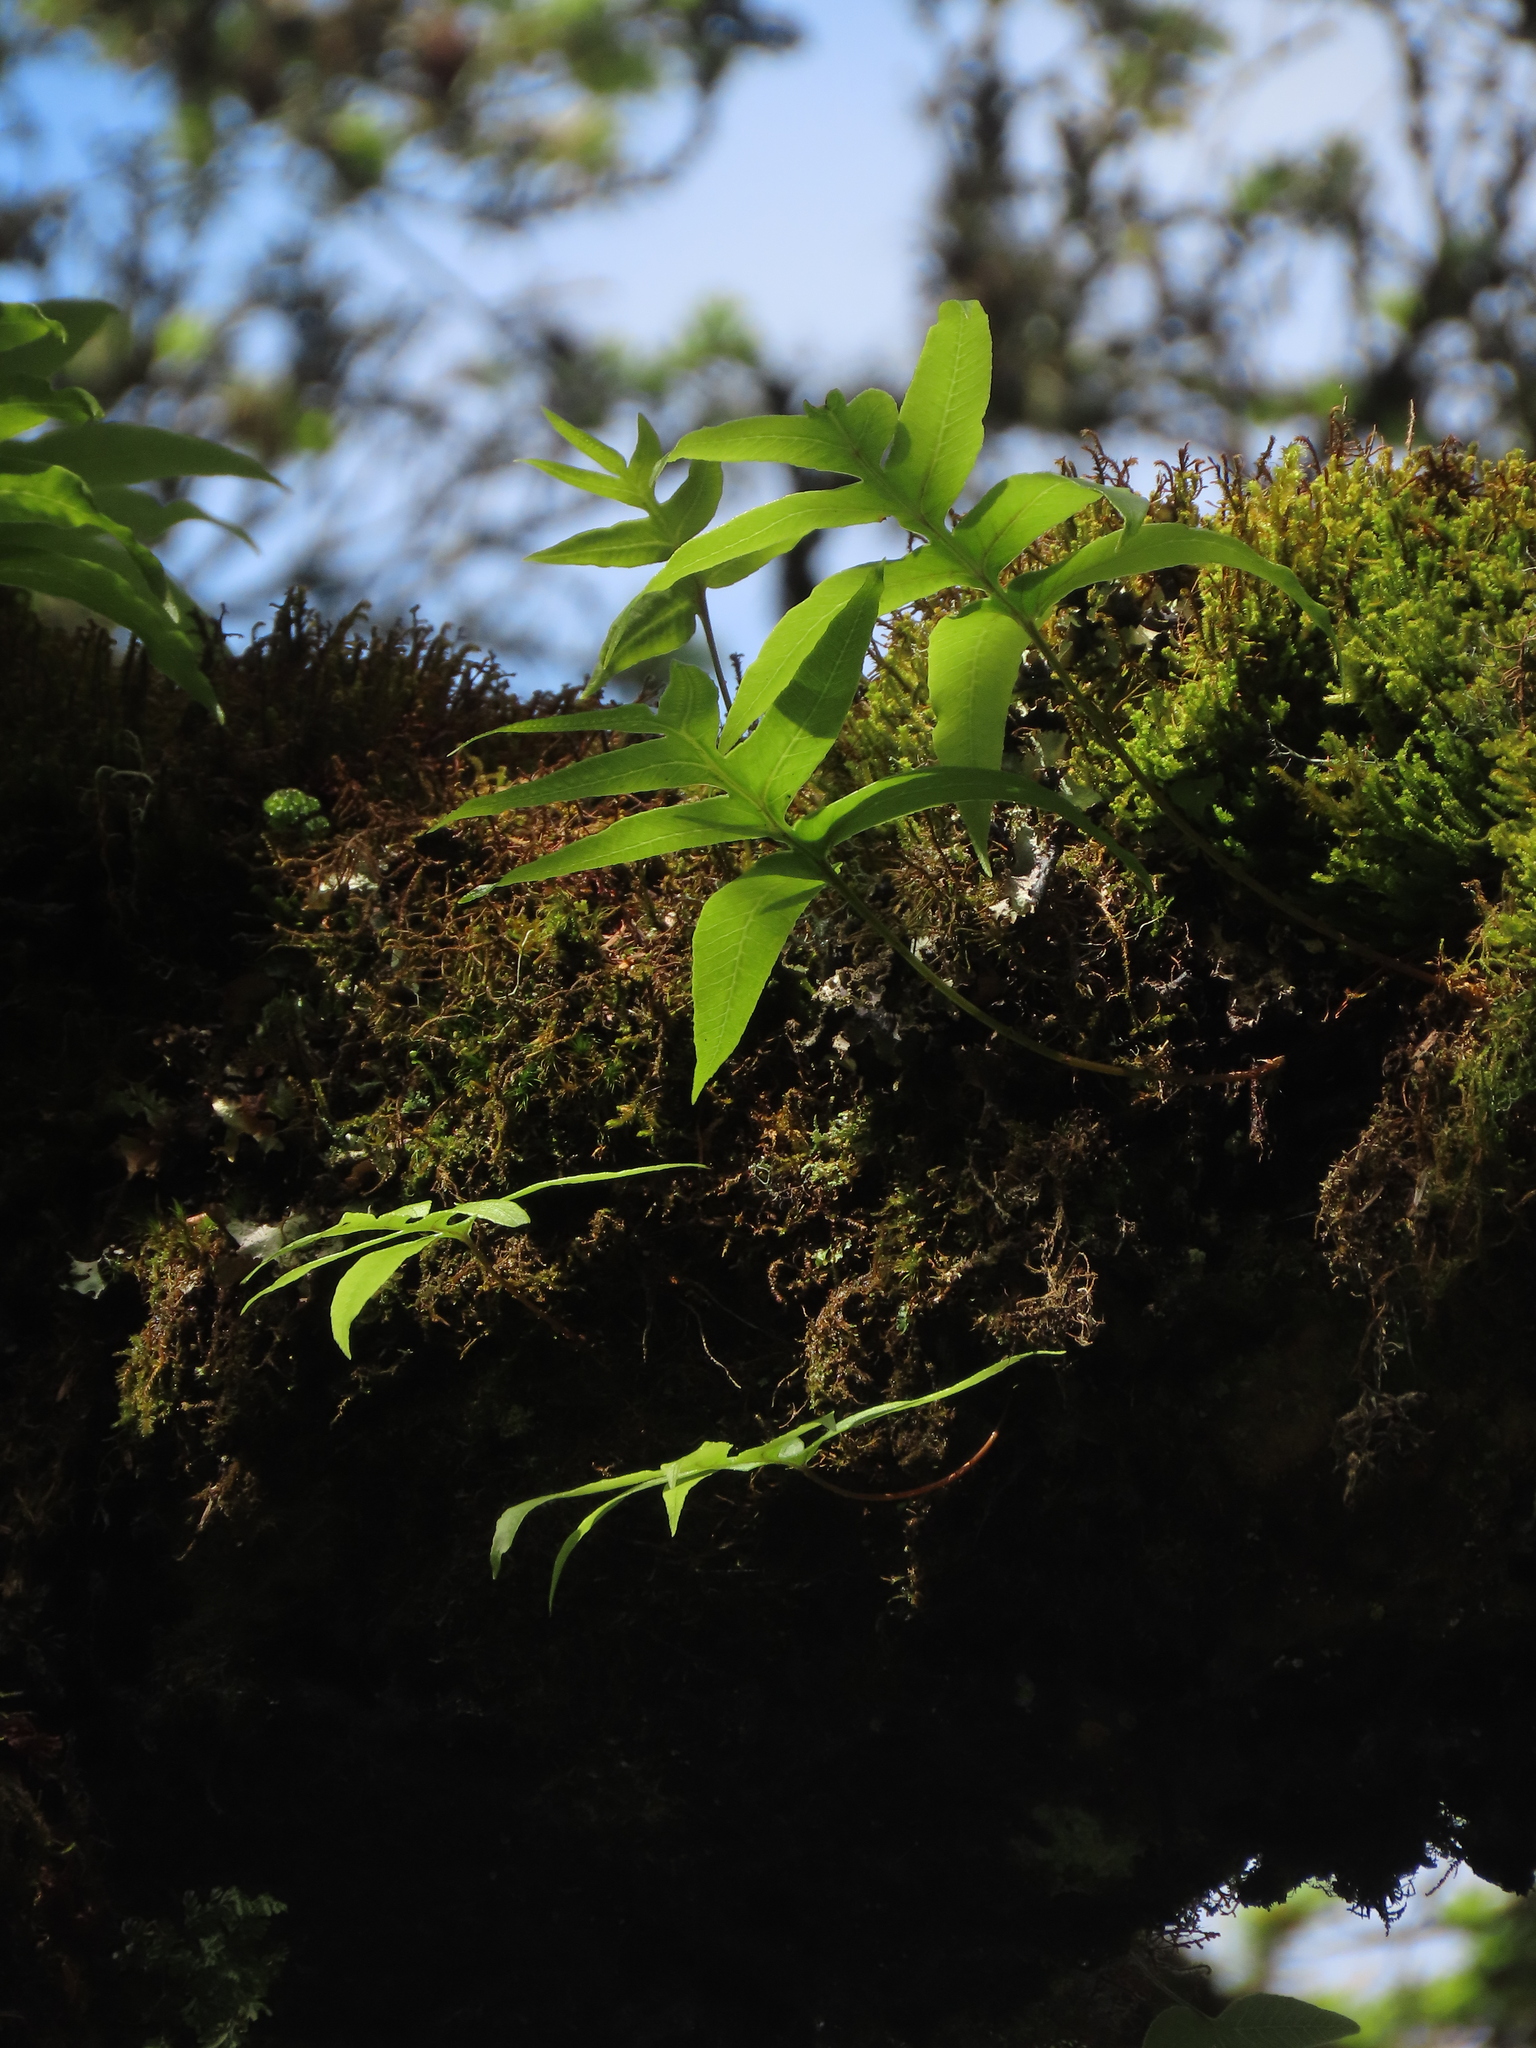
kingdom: Plantae
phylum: Tracheophyta
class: Polypodiopsida
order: Polypodiales
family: Polypodiaceae
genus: Selliguea
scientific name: Selliguea quasidivaricata
